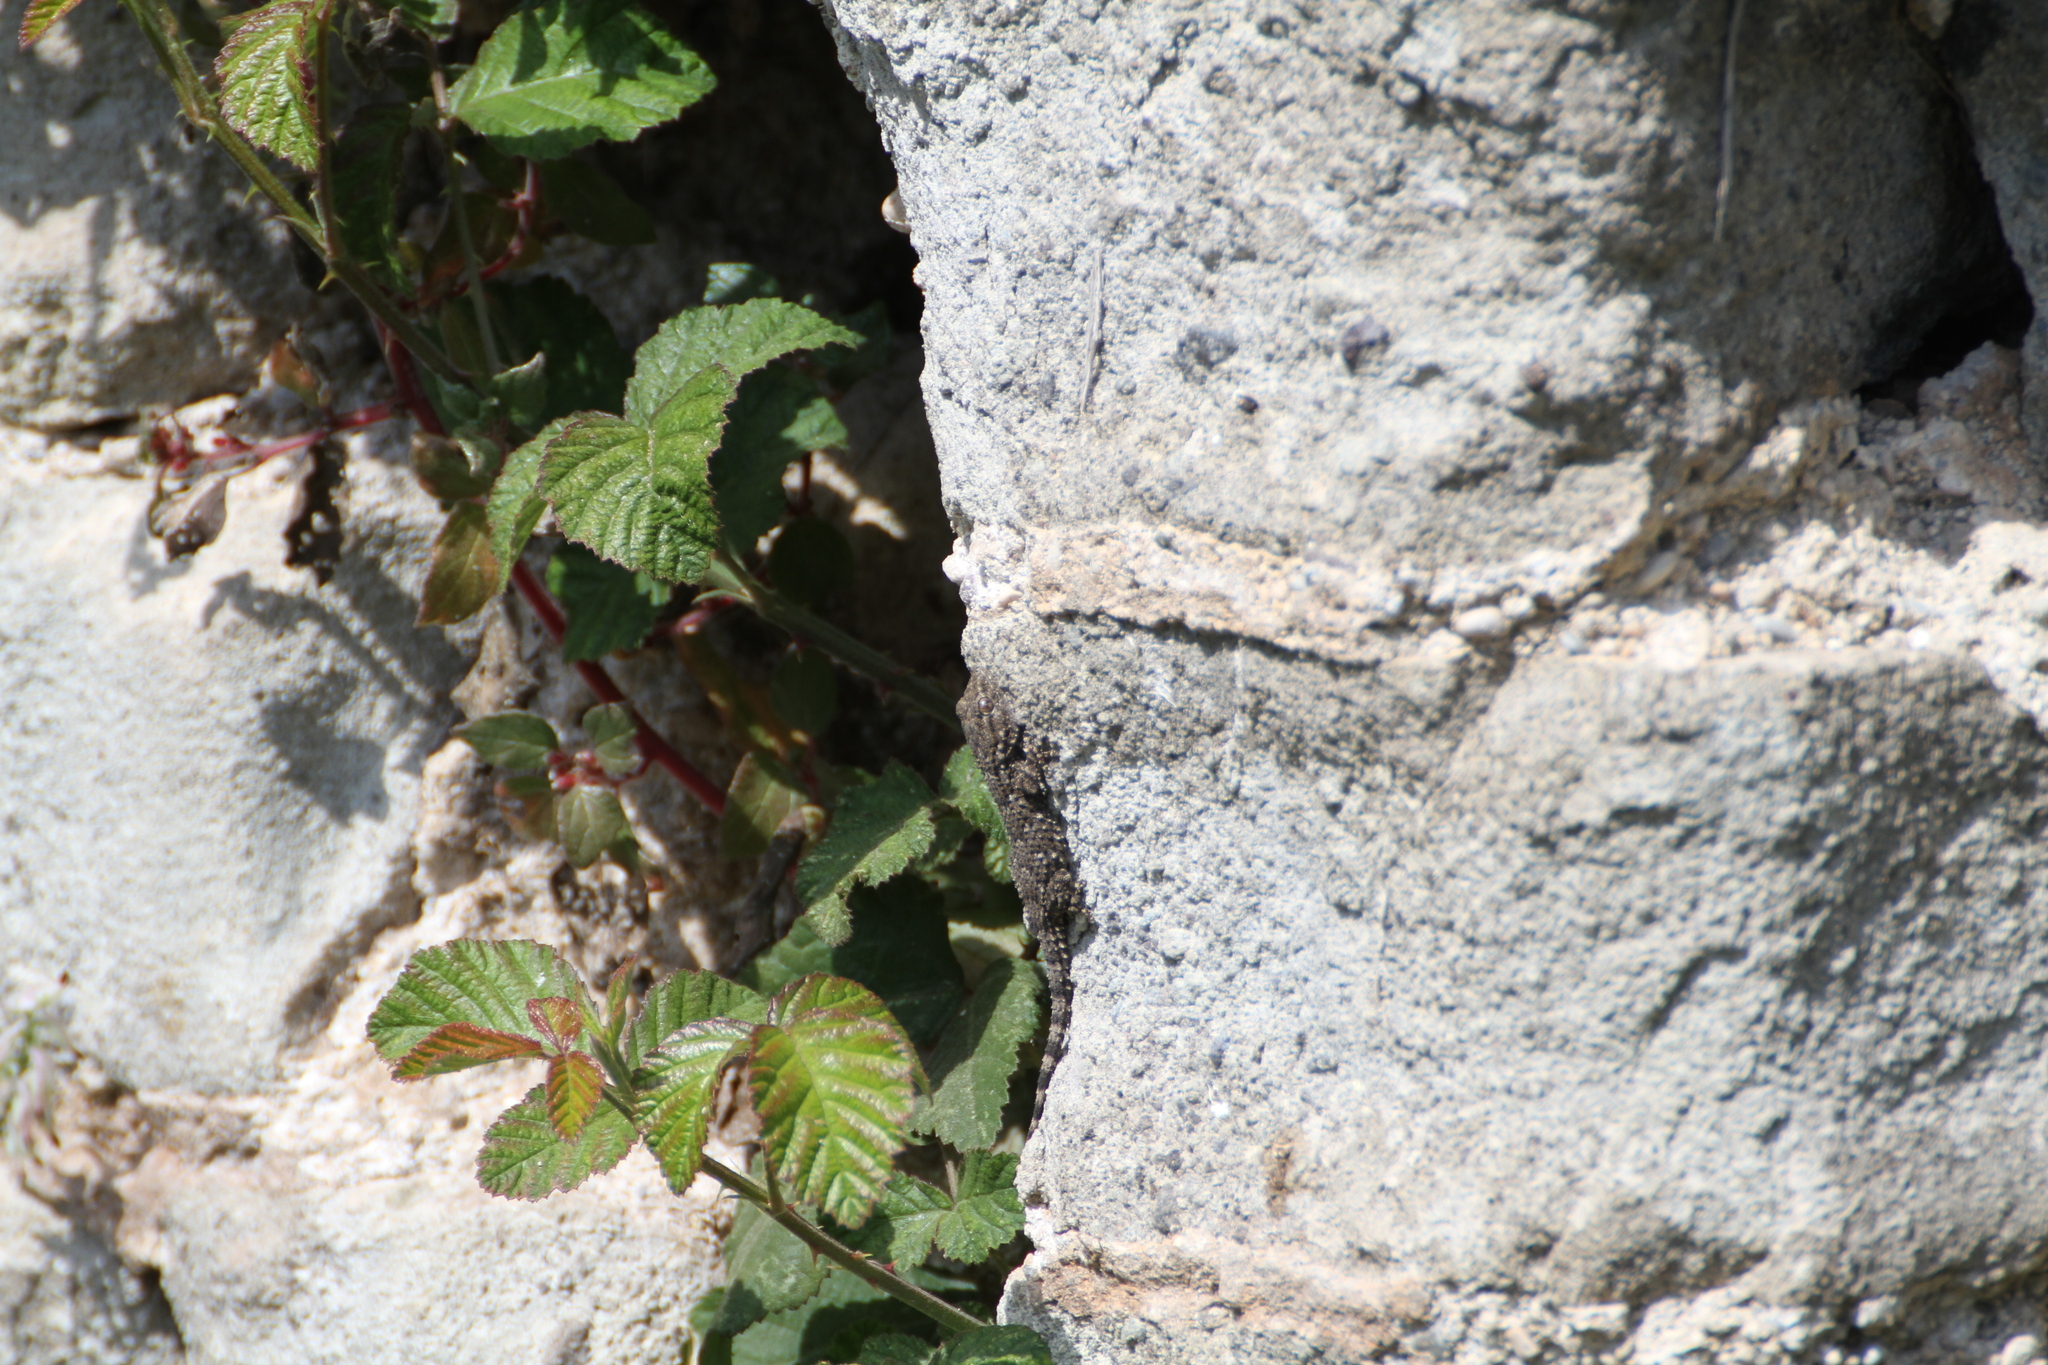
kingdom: Animalia
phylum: Chordata
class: Squamata
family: Phyllodactylidae
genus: Tarentola
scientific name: Tarentola mauritanica
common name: Moorish gecko
